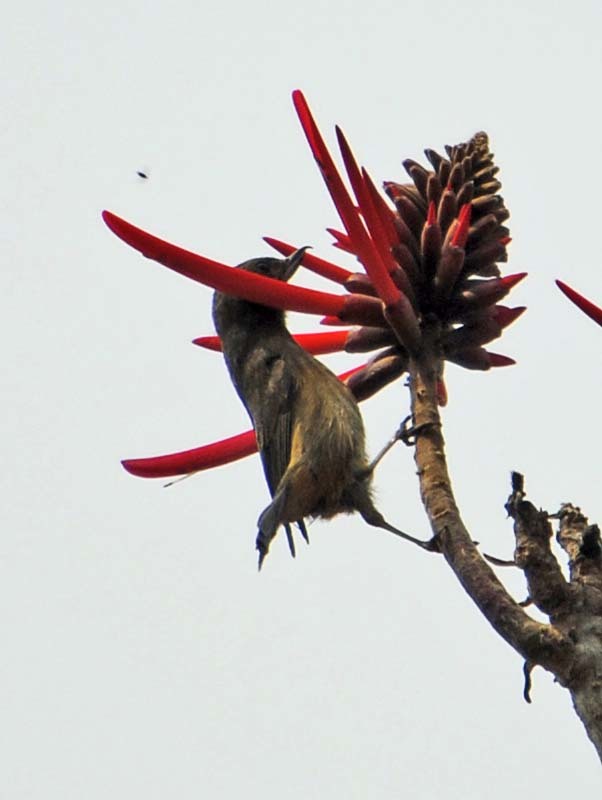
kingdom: Animalia
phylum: Chordata
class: Aves
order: Passeriformes
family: Thraupidae
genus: Diglossa
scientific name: Diglossa baritula
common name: Cinnamon-bellied flowerpiercer
